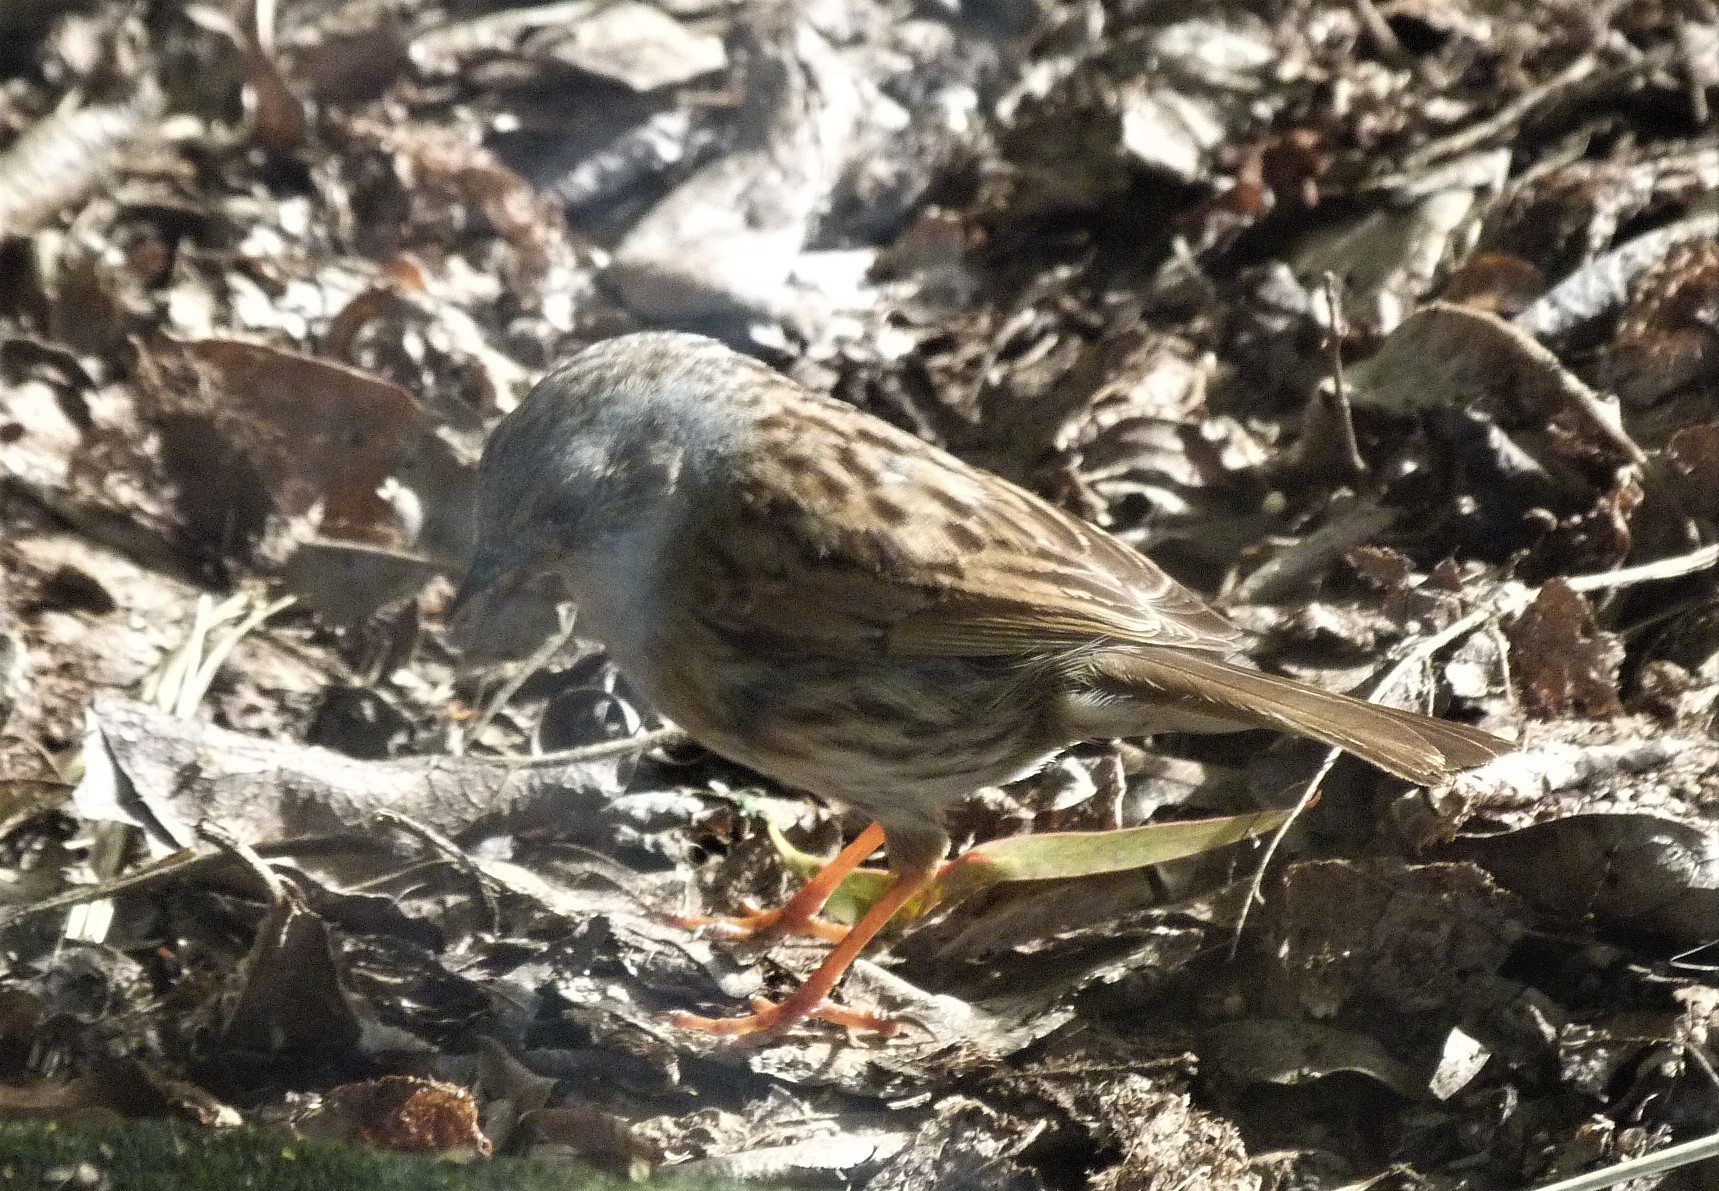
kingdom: Animalia
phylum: Chordata
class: Aves
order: Passeriformes
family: Prunellidae
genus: Prunella
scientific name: Prunella modularis
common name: Dunnock
